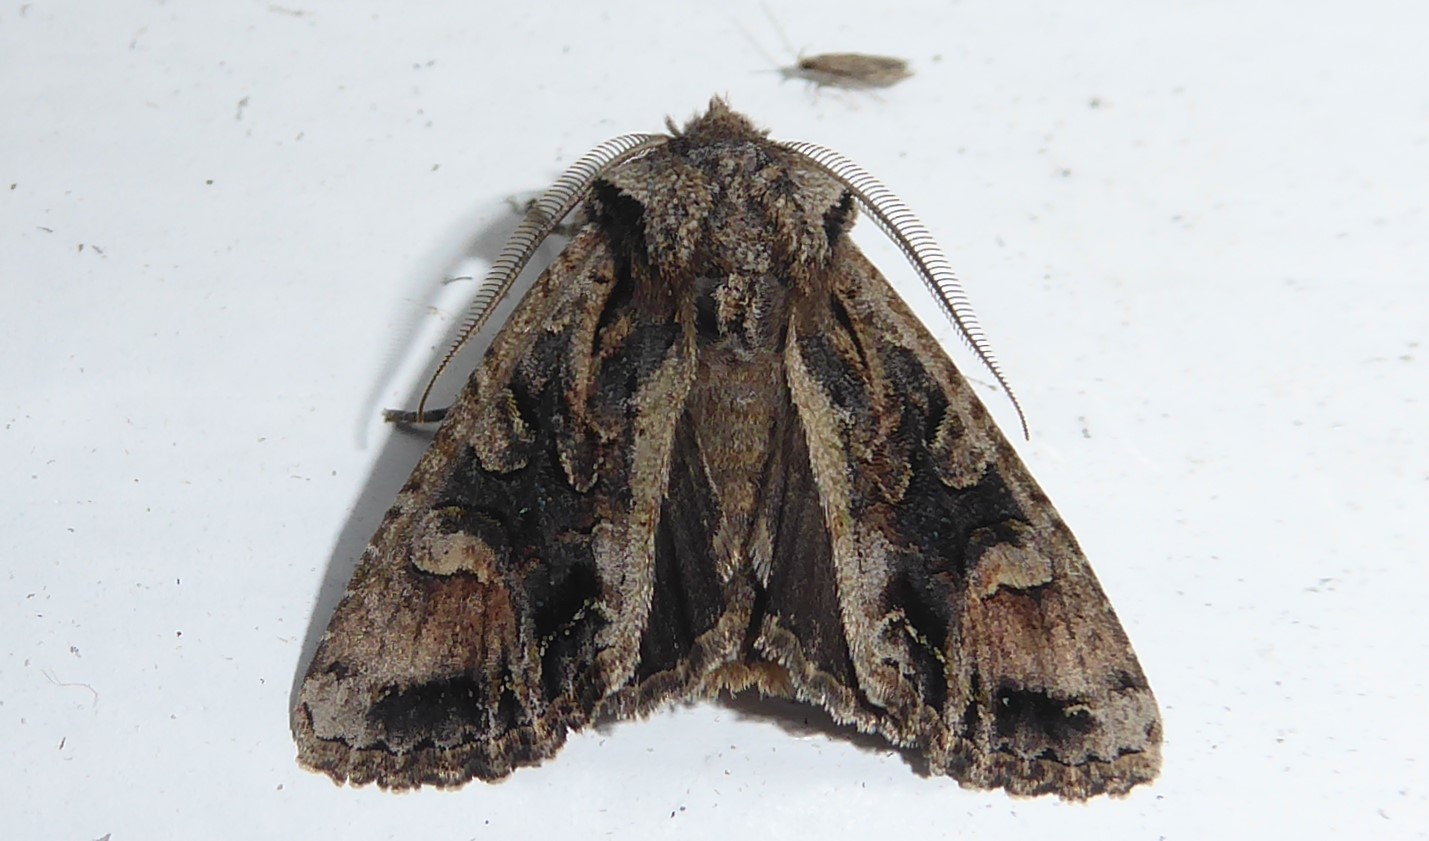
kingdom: Animalia
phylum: Arthropoda
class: Insecta
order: Lepidoptera
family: Noctuidae
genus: Ichneutica
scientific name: Ichneutica
